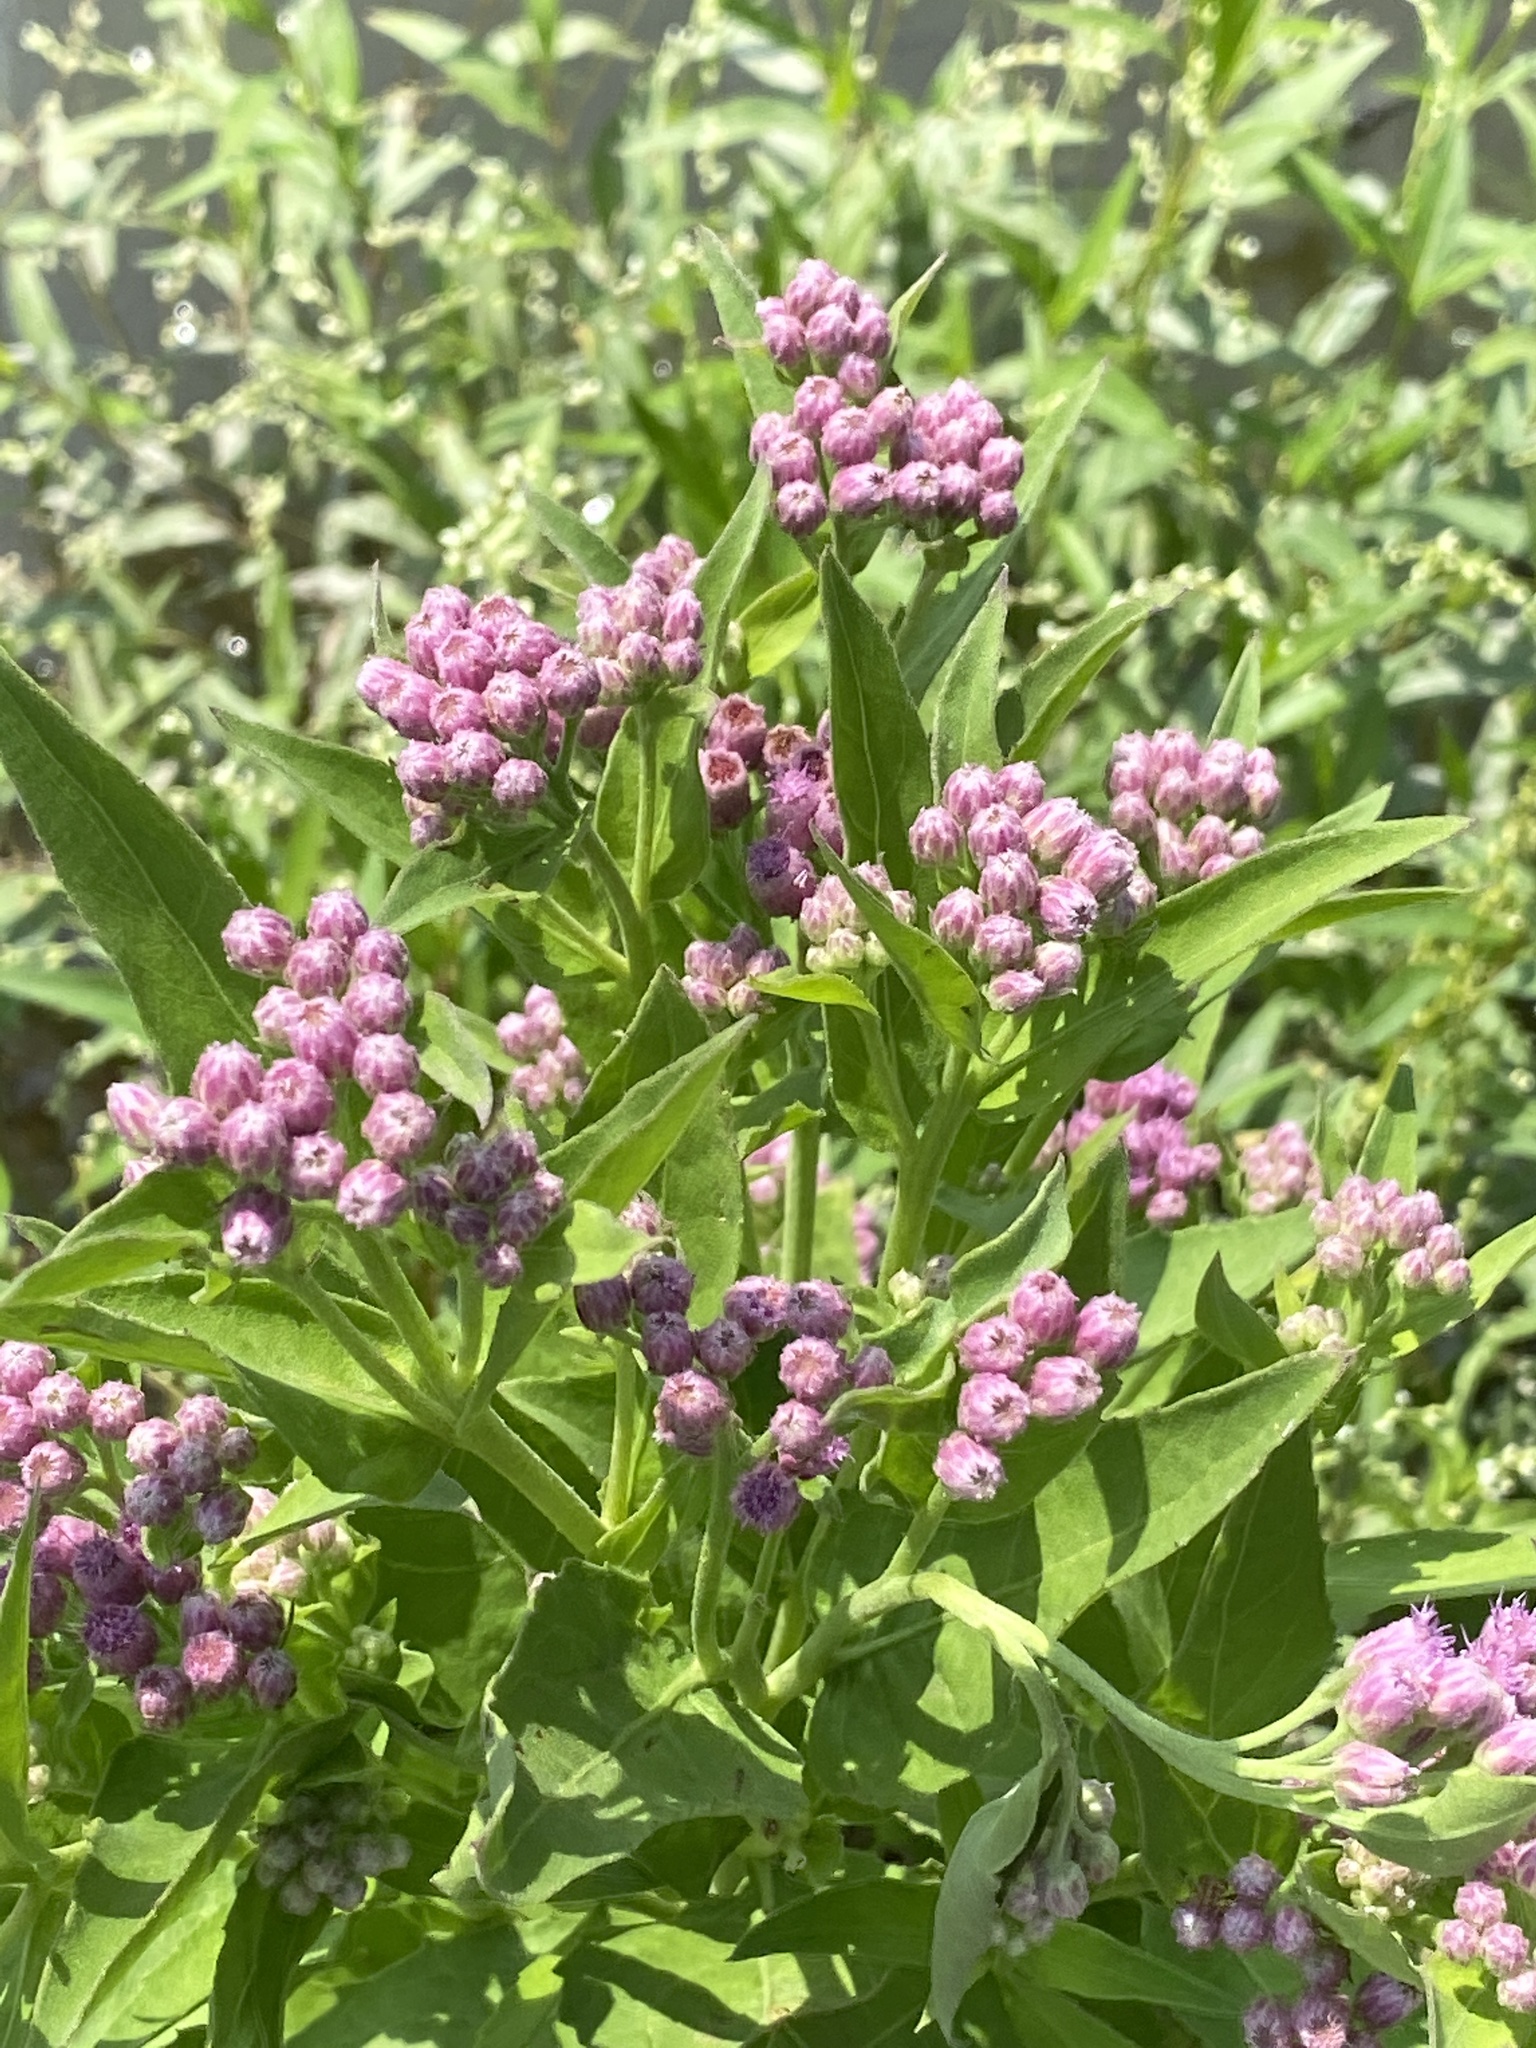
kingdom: Plantae
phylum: Tracheophyta
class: Magnoliopsida
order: Asterales
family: Asteraceae
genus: Pluchea
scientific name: Pluchea odorata
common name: Saltmarsh fleabane
